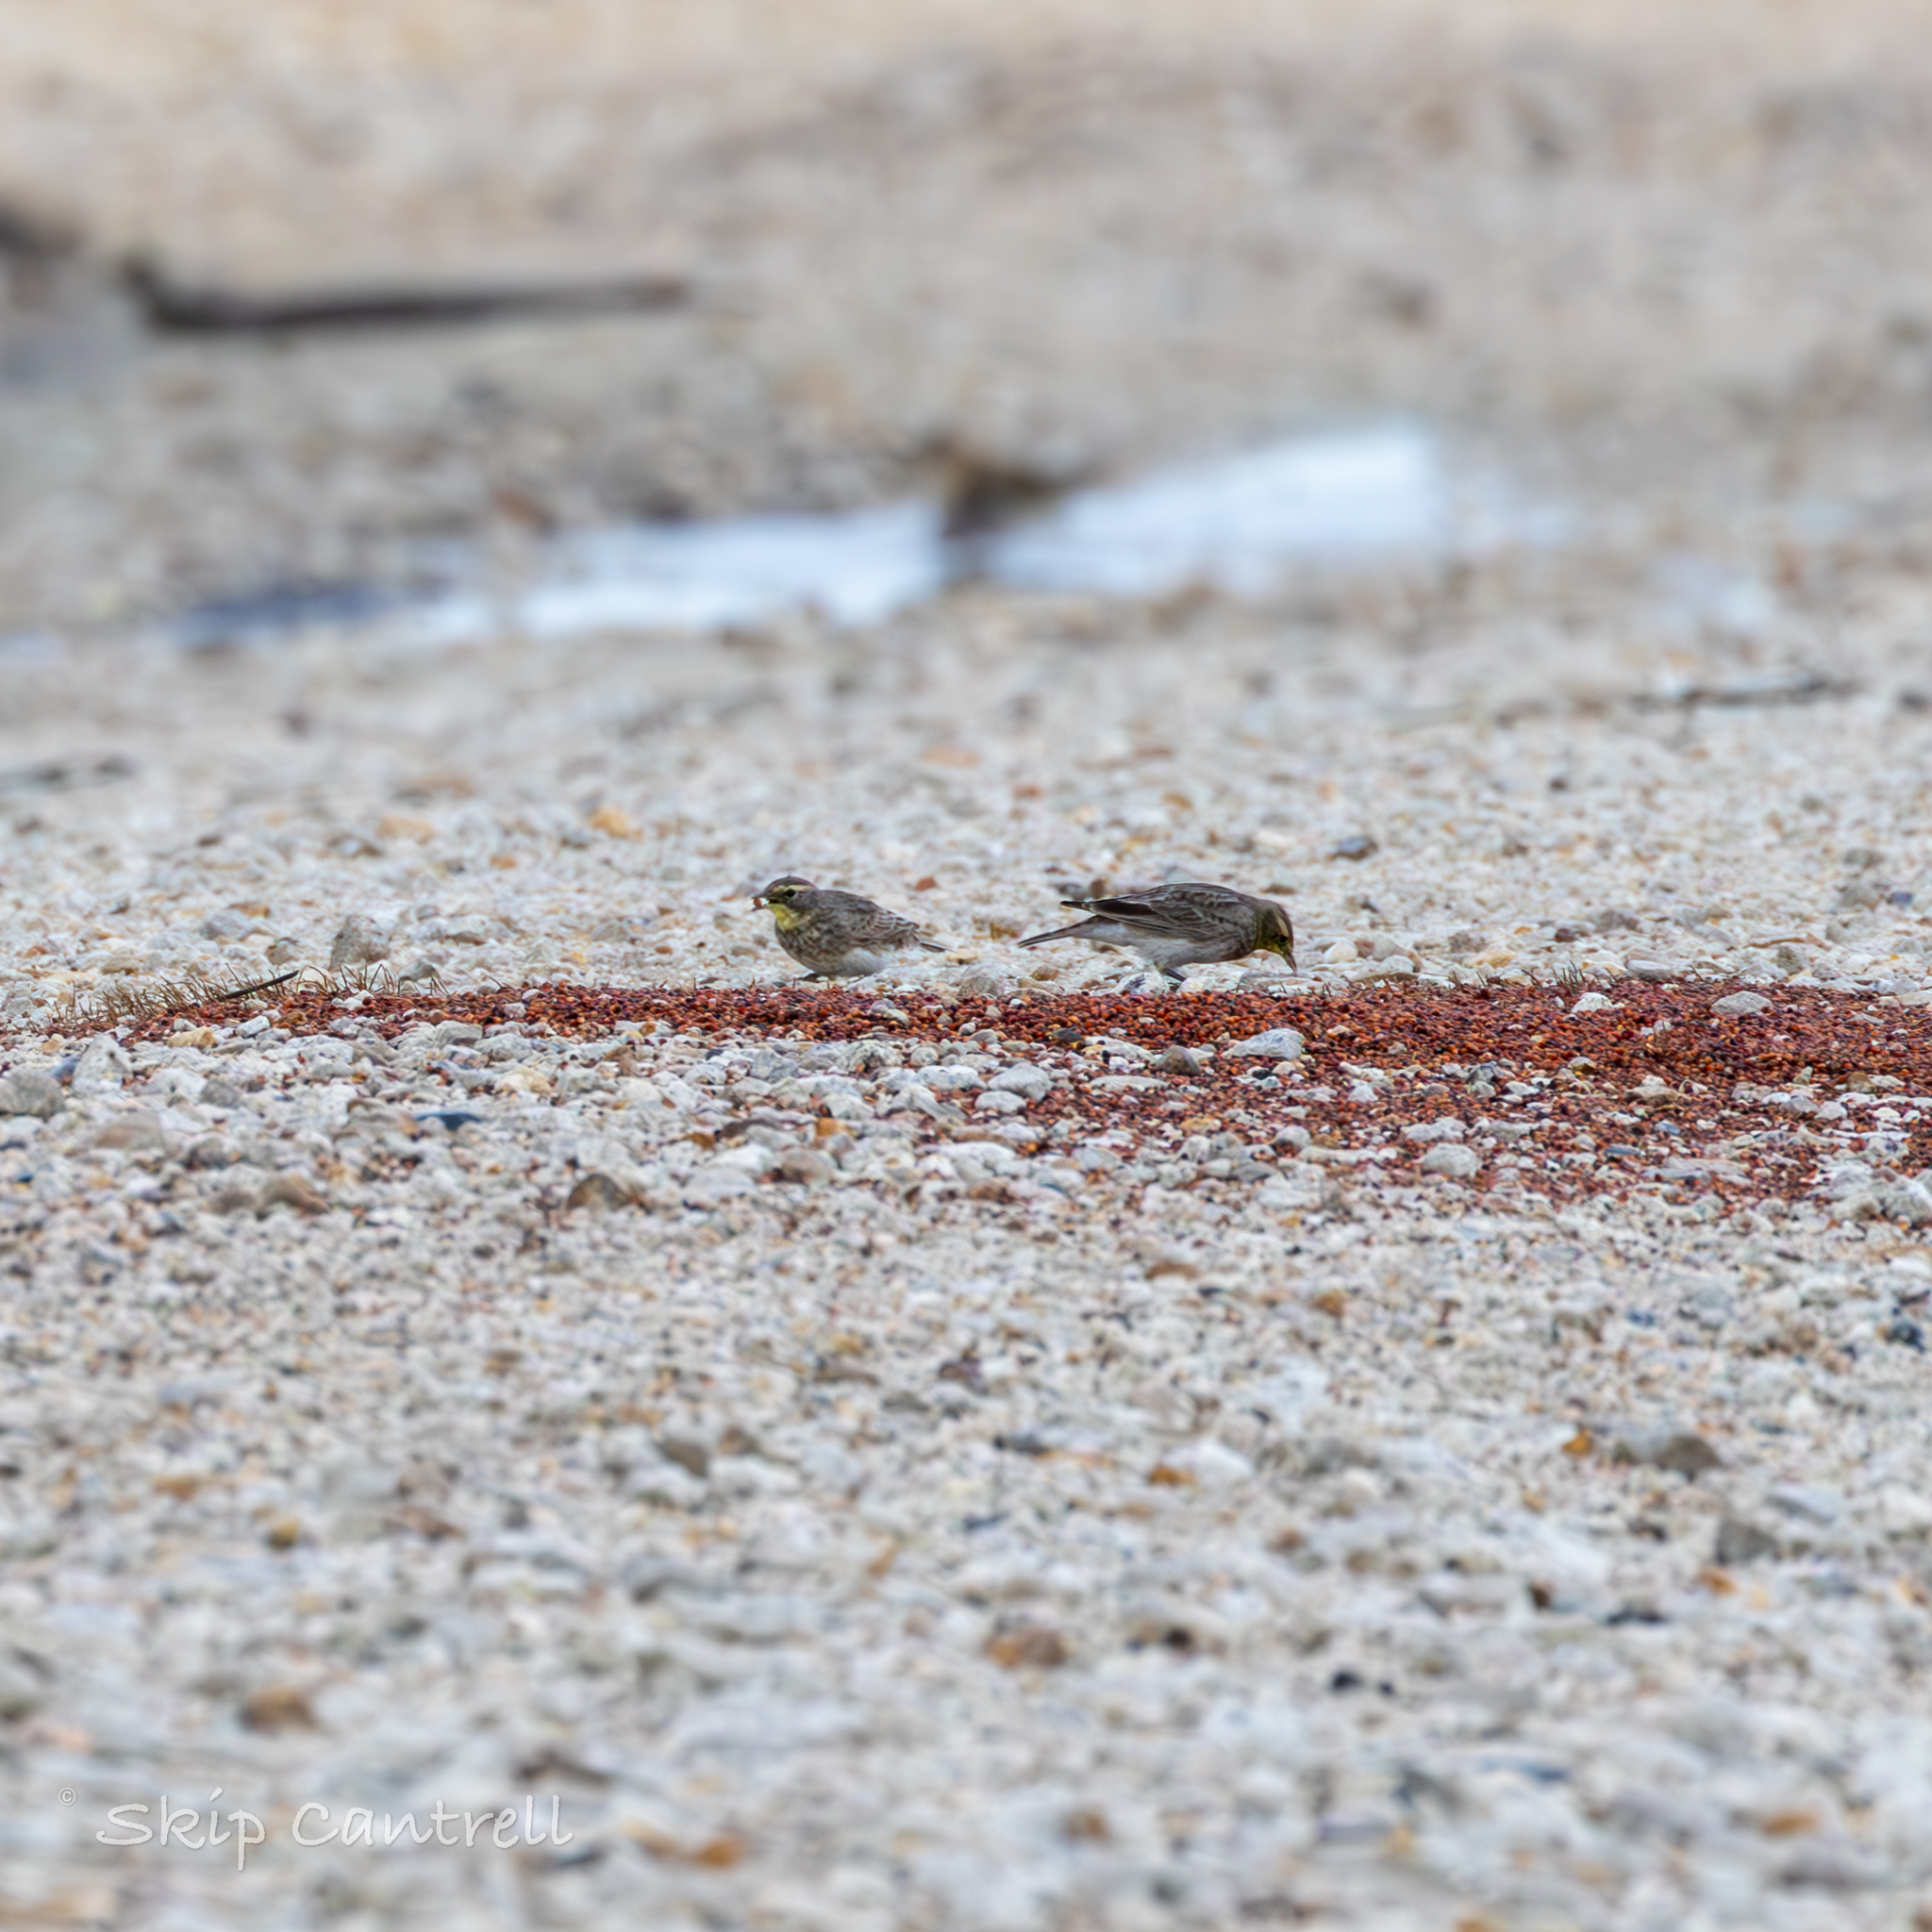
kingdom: Animalia
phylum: Chordata
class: Aves
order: Passeriformes
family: Alaudidae
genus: Eremophila
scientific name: Eremophila alpestris
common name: Horned lark
